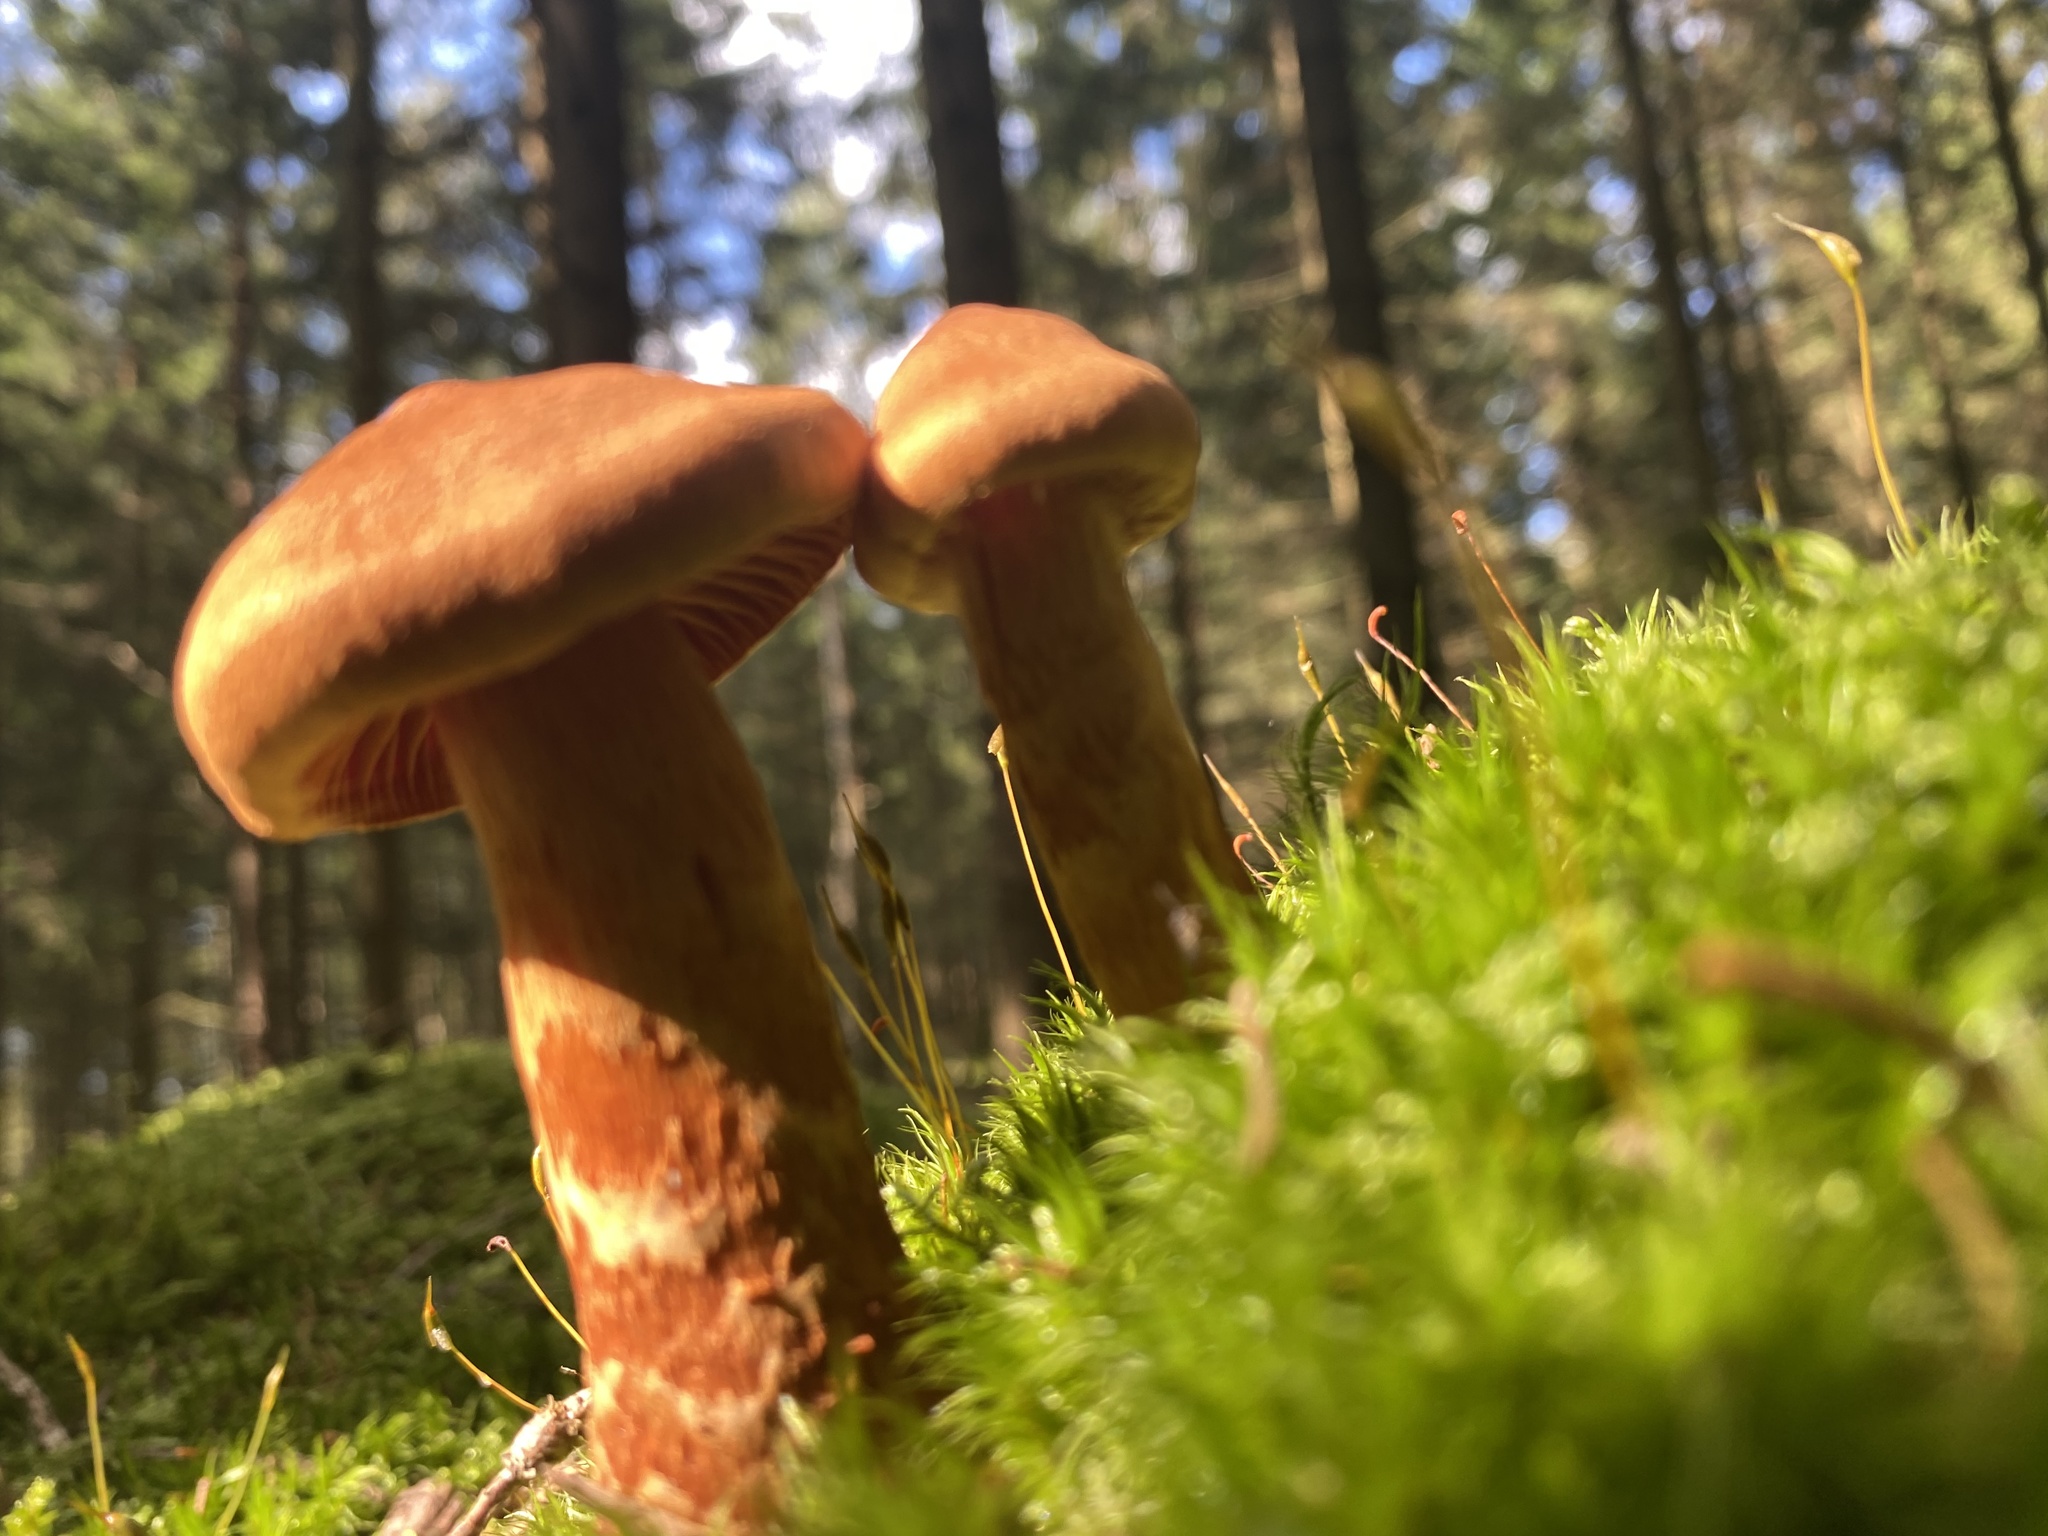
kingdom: Fungi
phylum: Basidiomycota
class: Agaricomycetes
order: Agaricales
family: Cortinariaceae
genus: Cortinarius
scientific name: Cortinarius rubellus
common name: Deadly webcap
